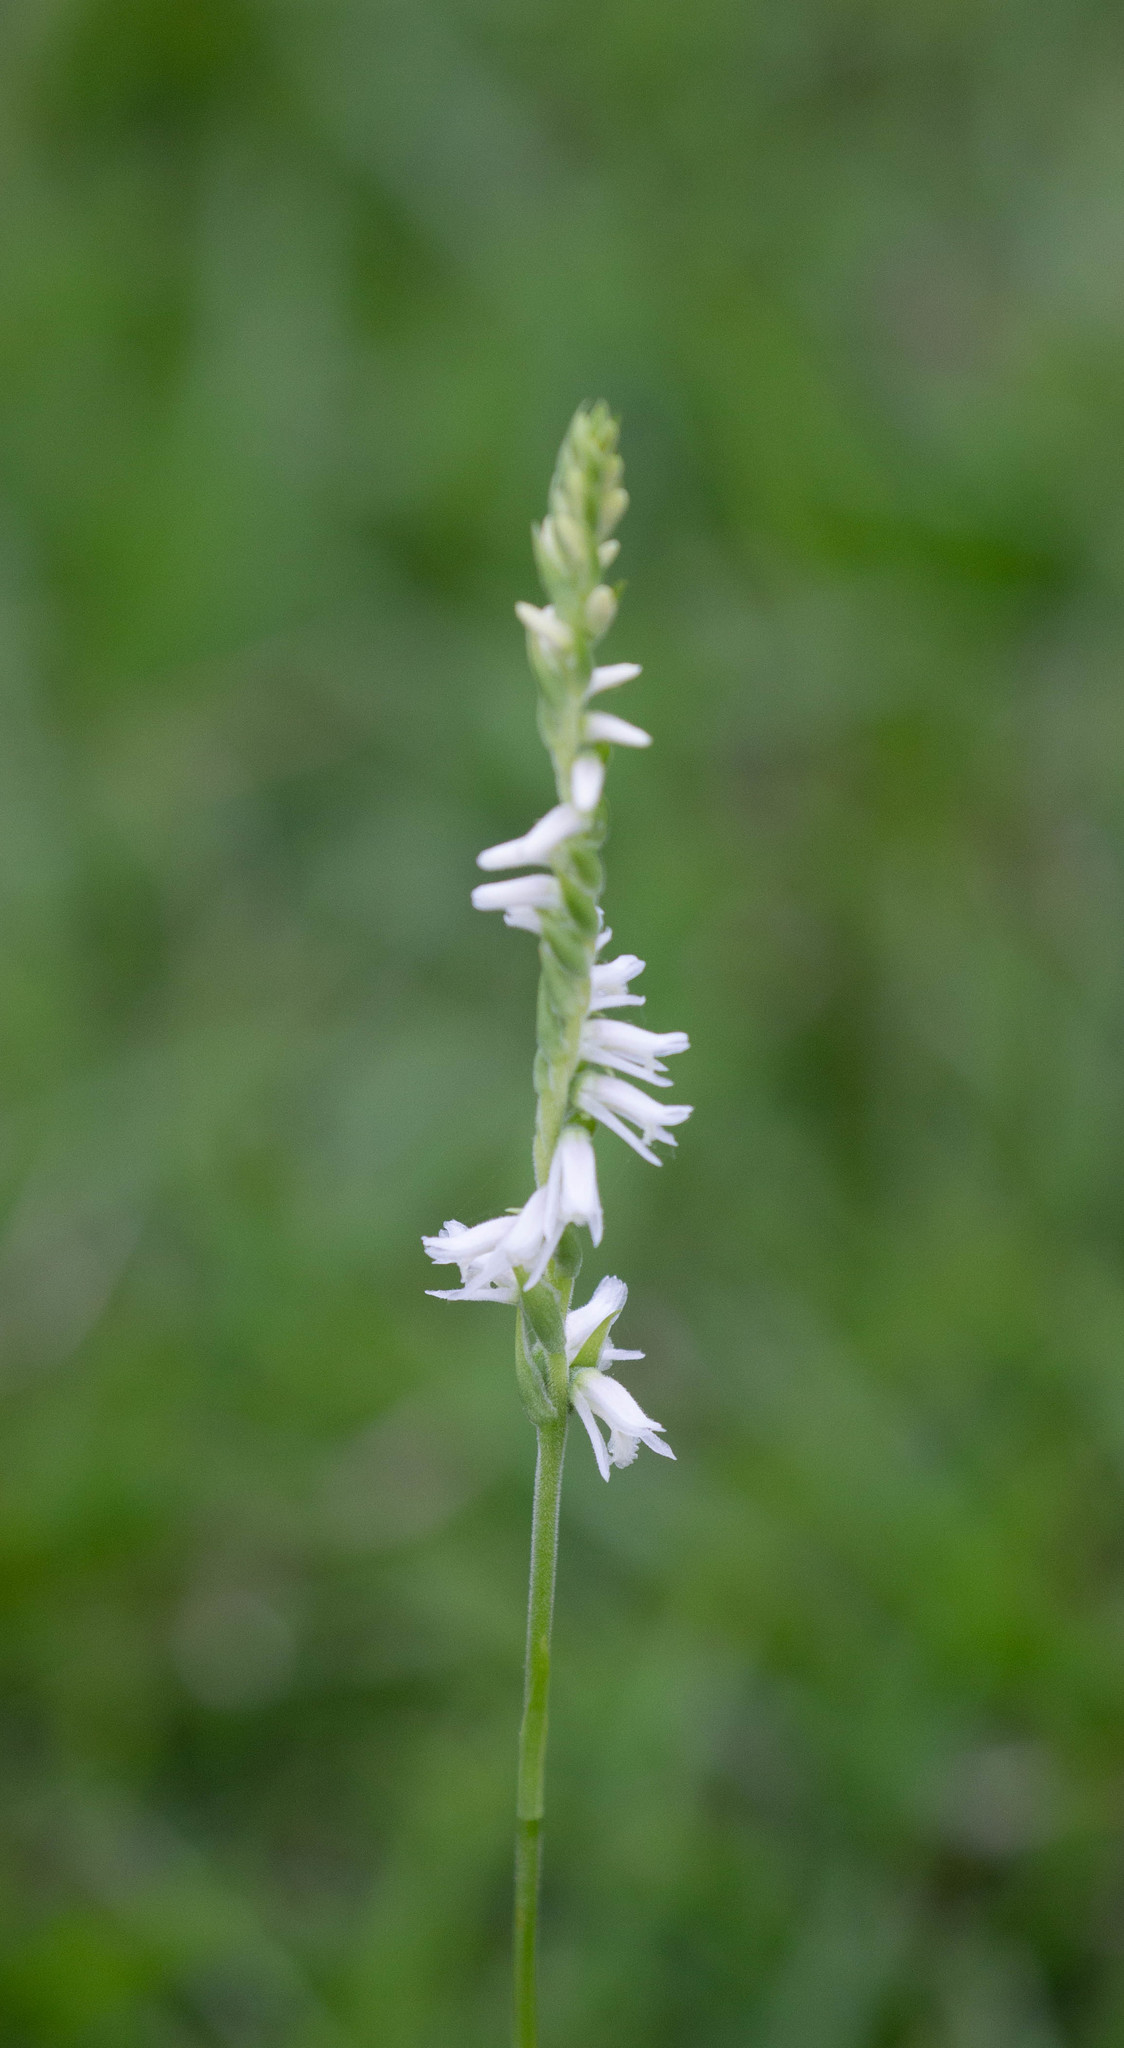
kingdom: Plantae
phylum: Tracheophyta
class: Liliopsida
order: Asparagales
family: Orchidaceae
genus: Spiranthes
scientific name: Spiranthes vernalis
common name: Spring ladies'-tresses
